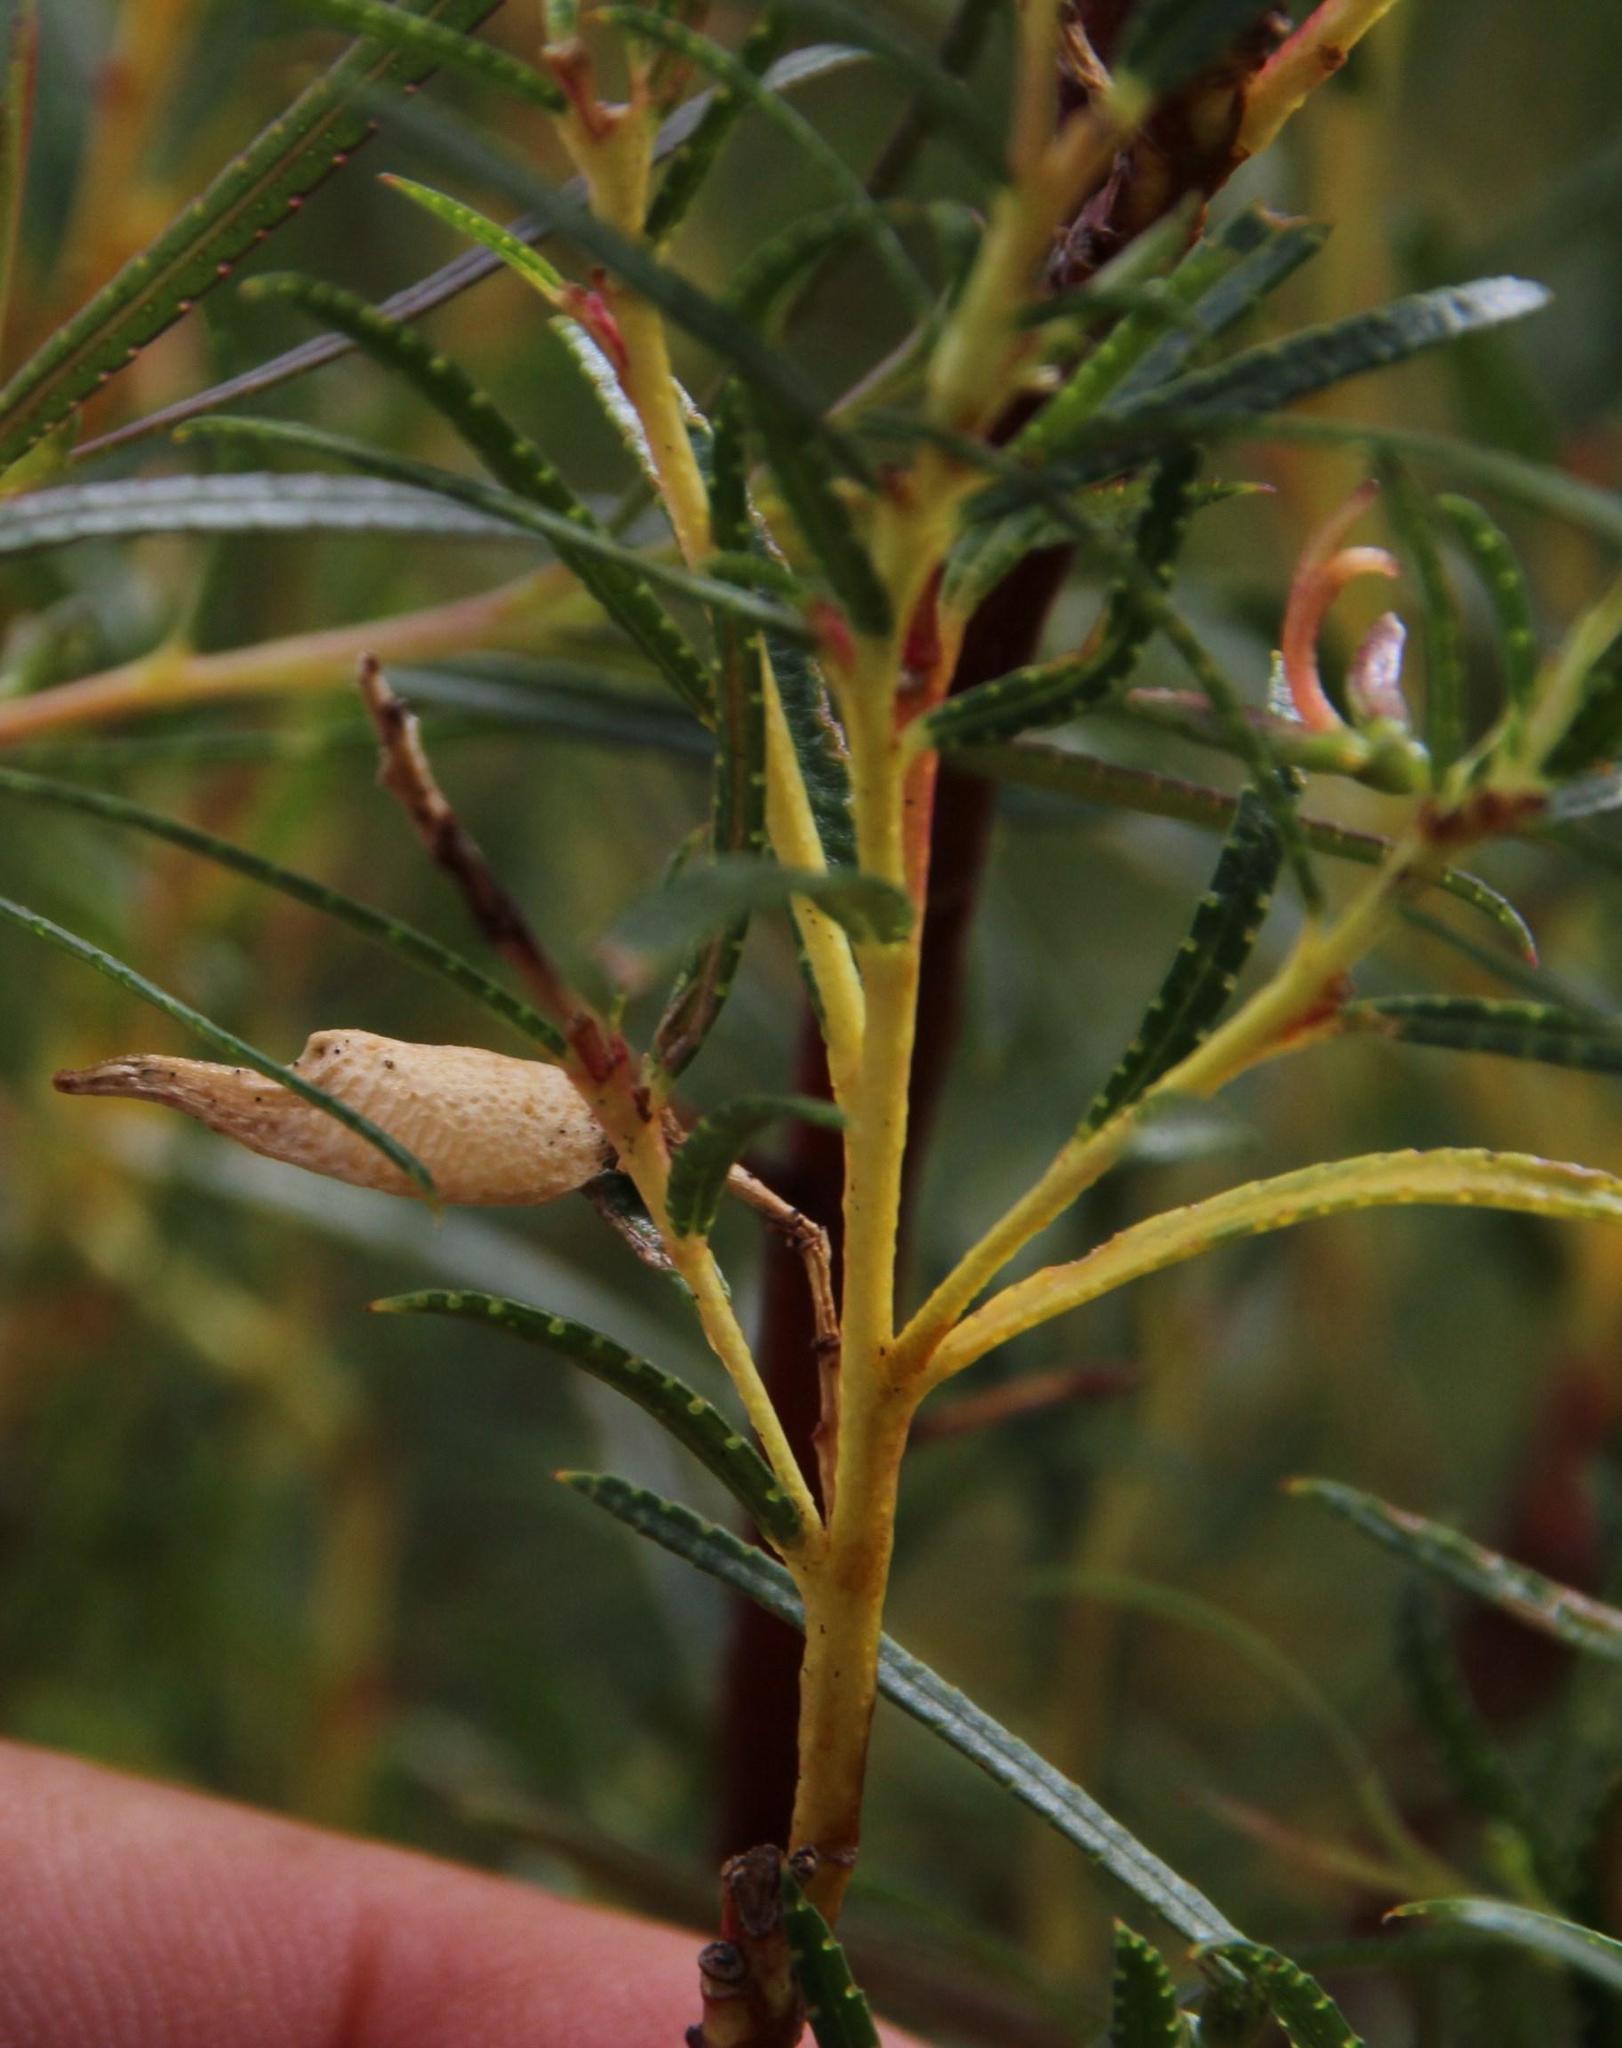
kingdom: Plantae
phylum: Tracheophyta
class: Magnoliopsida
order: Sapindales
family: Rutaceae
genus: Empleurum
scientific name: Empleurum unicapsulare
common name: False buchu
